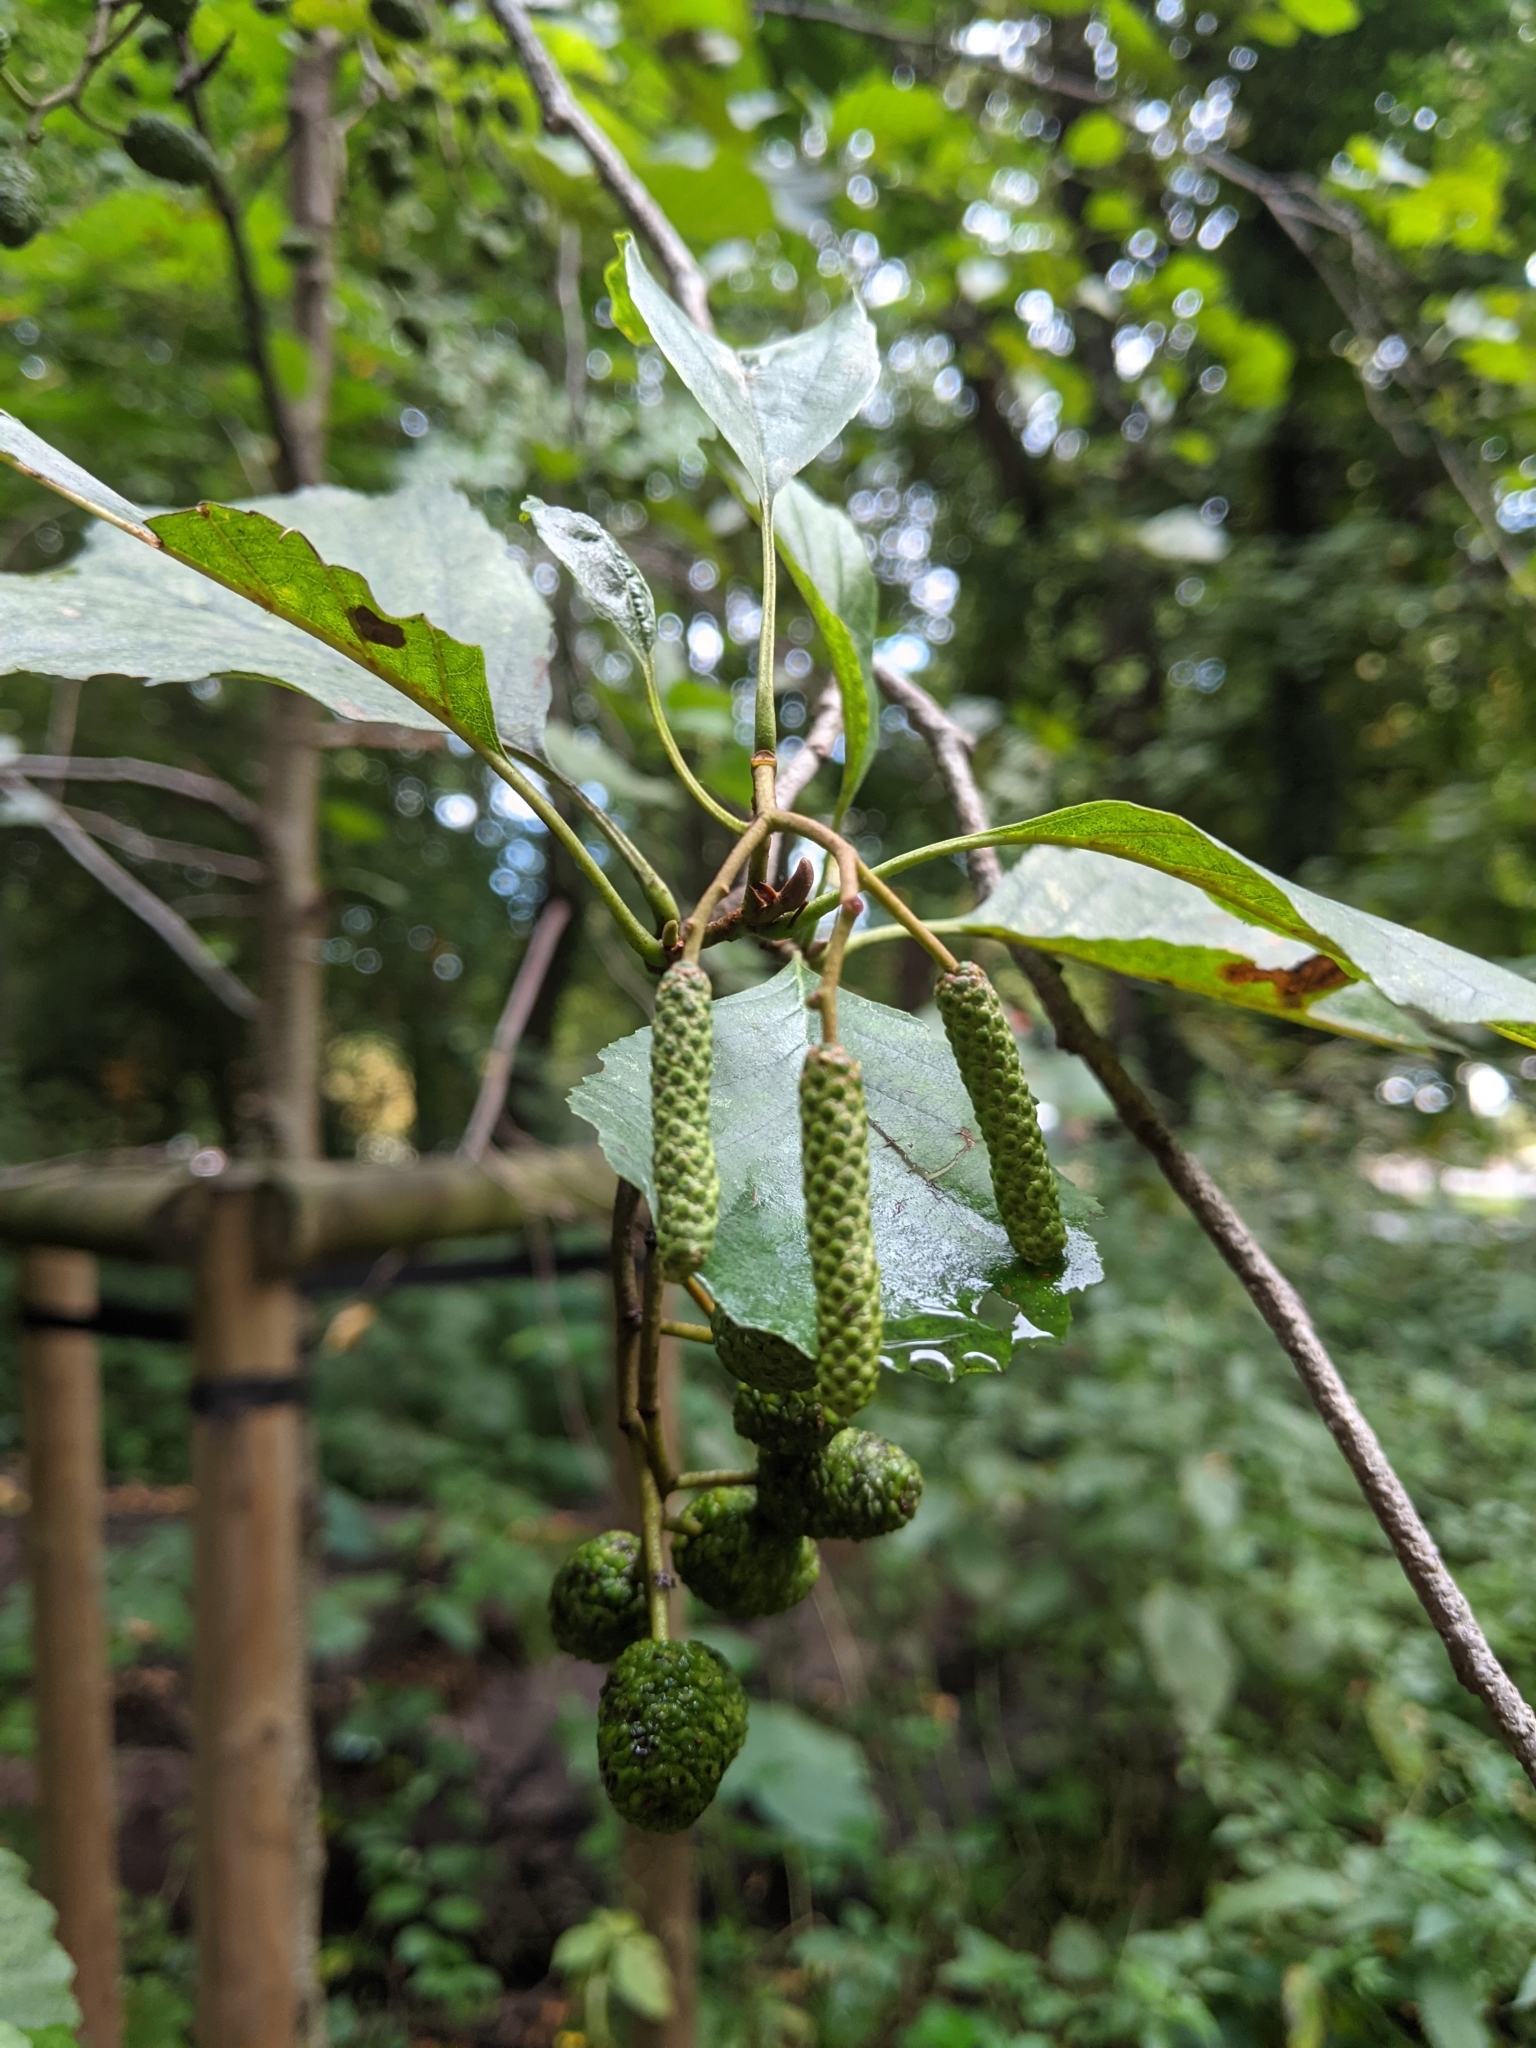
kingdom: Plantae
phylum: Tracheophyta
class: Magnoliopsida
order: Fagales
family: Betulaceae
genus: Alnus
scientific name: Alnus glutinosa
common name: Black alder
